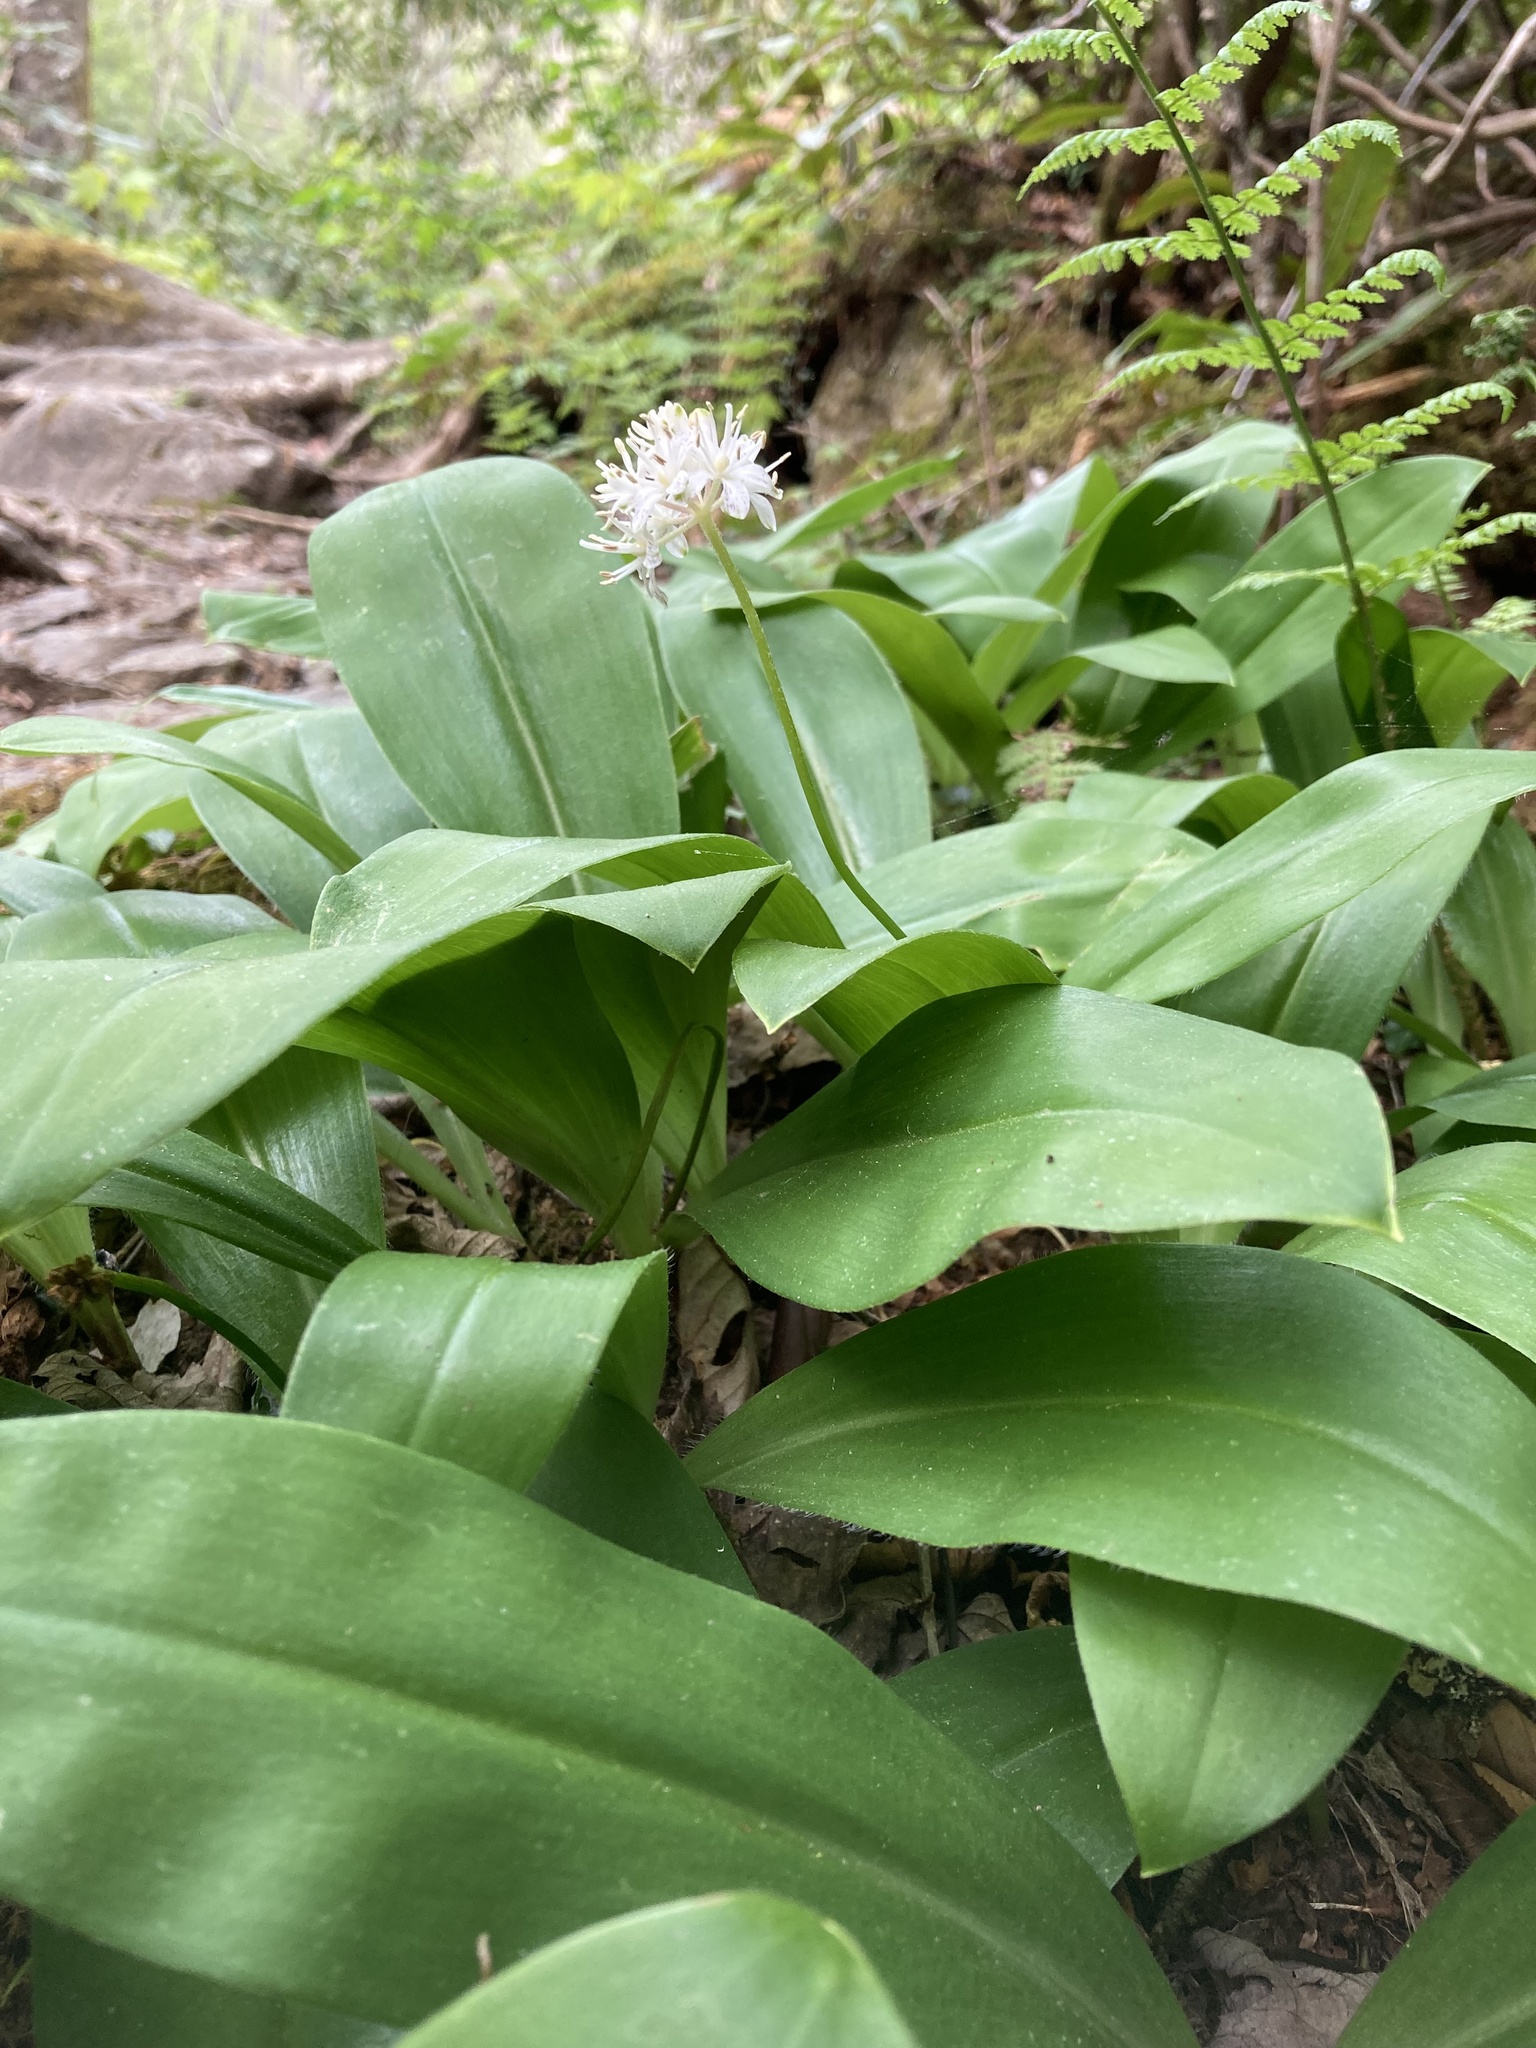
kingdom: Plantae
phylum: Tracheophyta
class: Liliopsida
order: Liliales
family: Liliaceae
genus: Clintonia
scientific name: Clintonia umbellulata
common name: Speckle wood-lily
